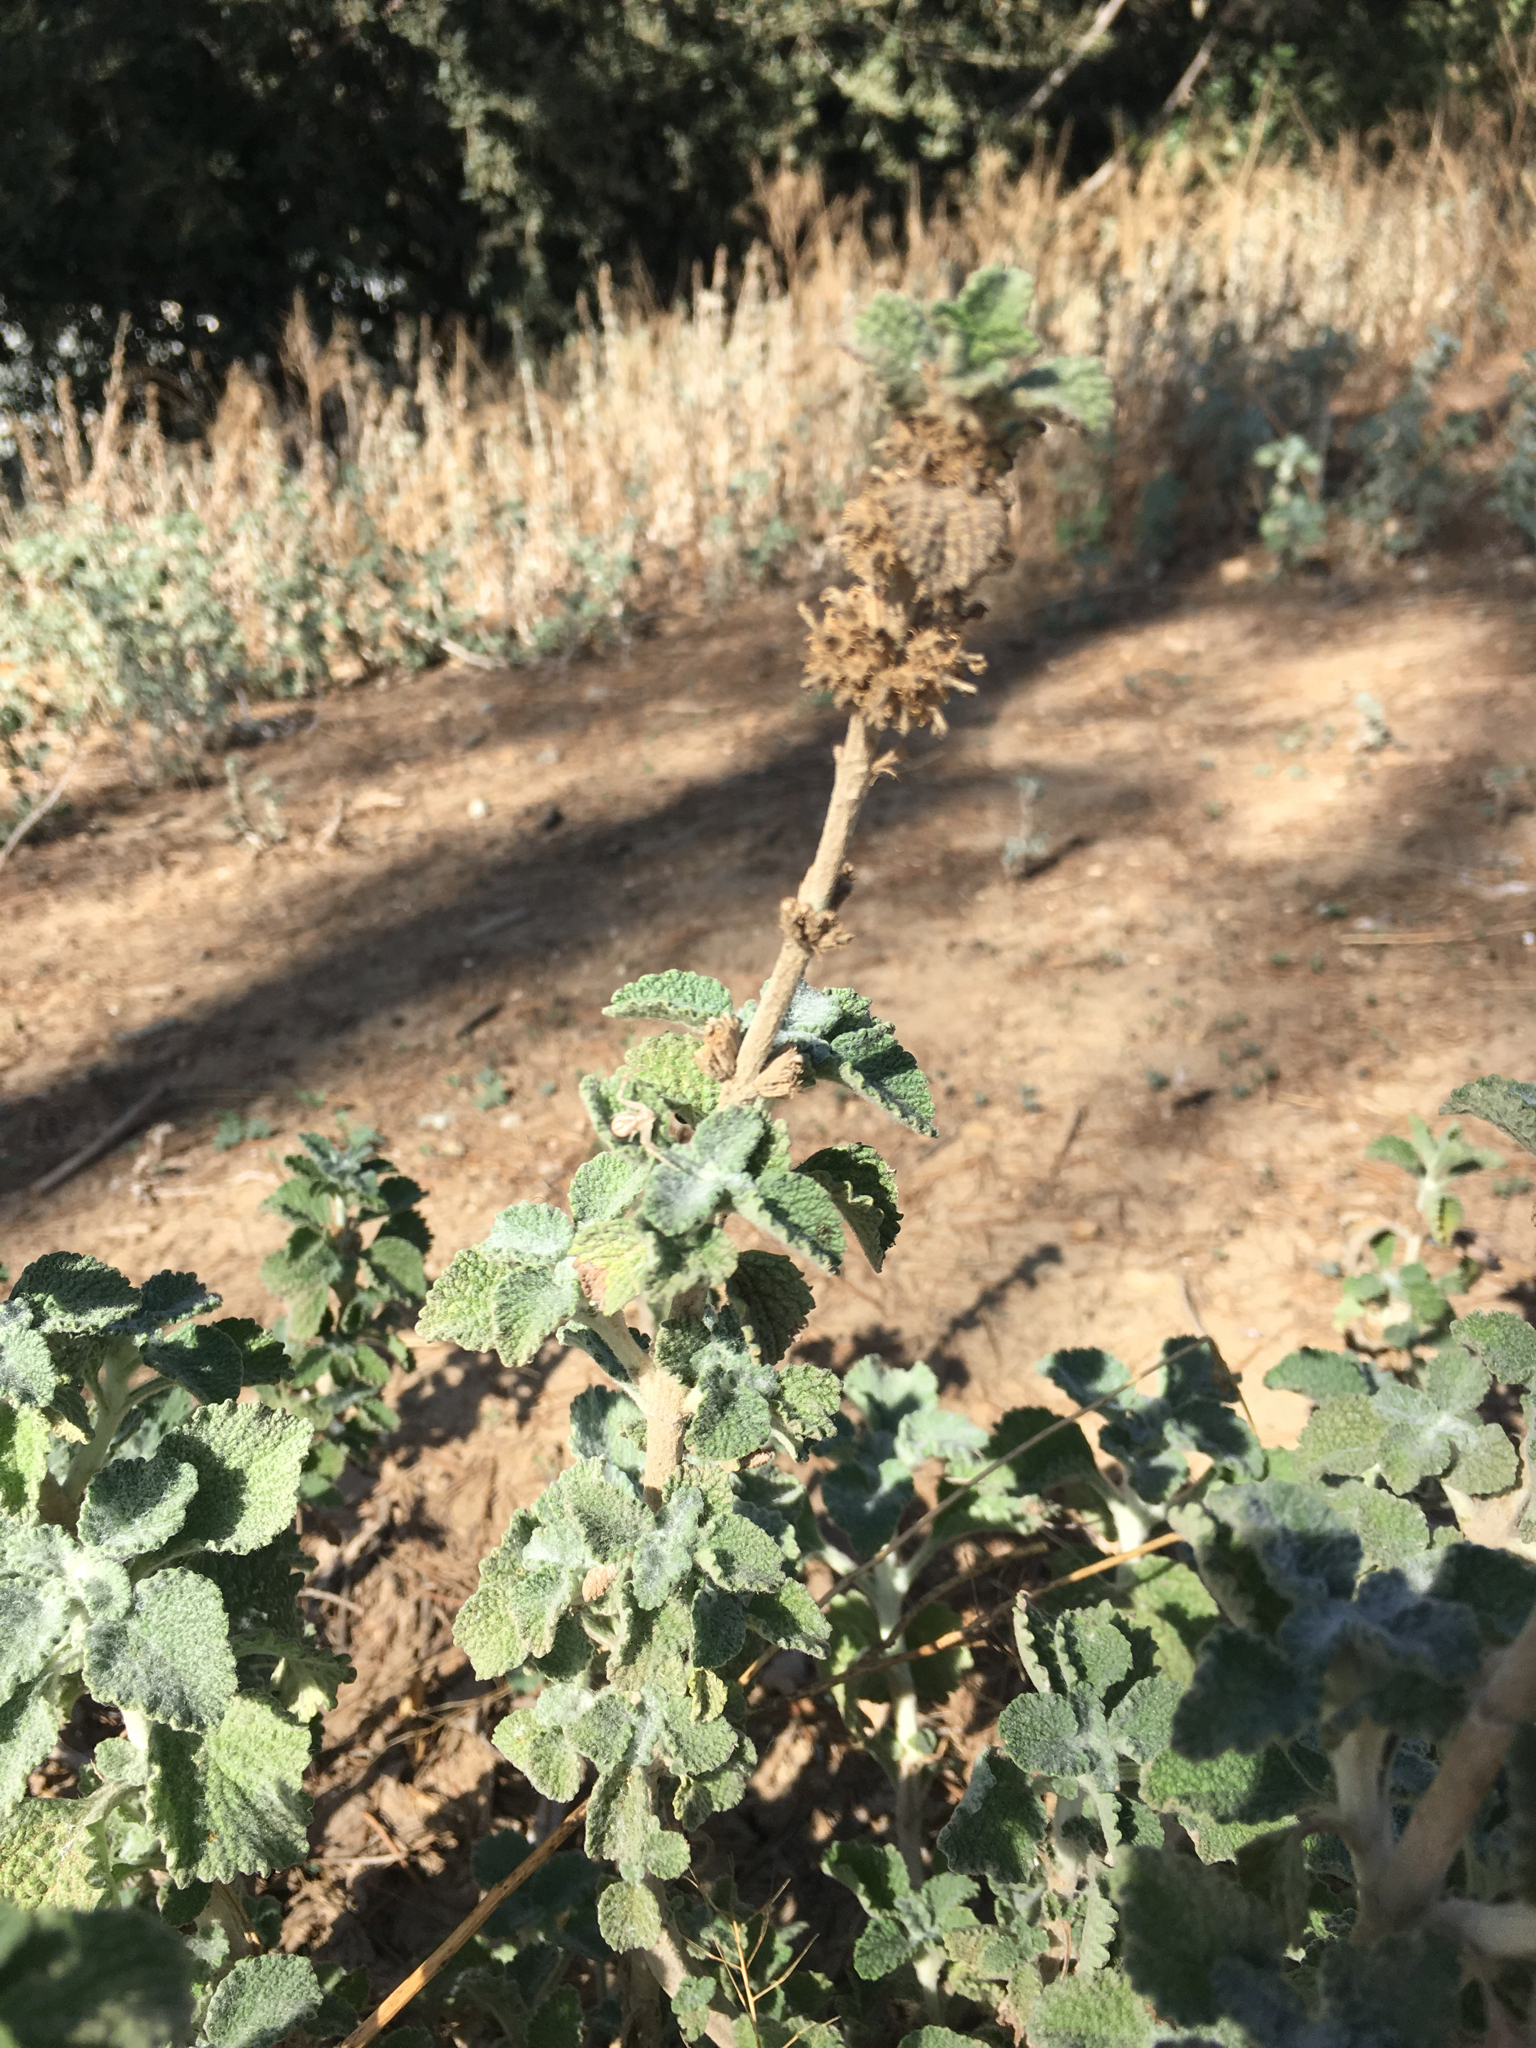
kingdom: Plantae
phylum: Tracheophyta
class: Magnoliopsida
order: Lamiales
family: Lamiaceae
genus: Marrubium
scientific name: Marrubium vulgare
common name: Horehound
